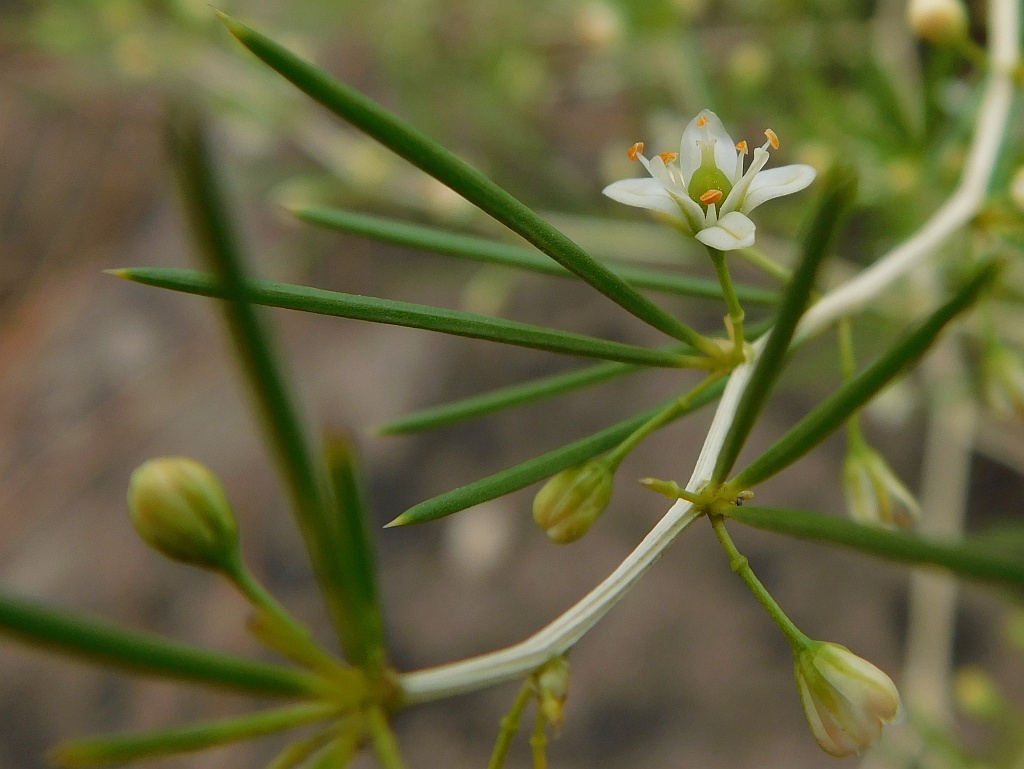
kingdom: Plantae
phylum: Tracheophyta
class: Liliopsida
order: Asparagales
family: Asparagaceae
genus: Asparagus
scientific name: Asparagus retrofractus
